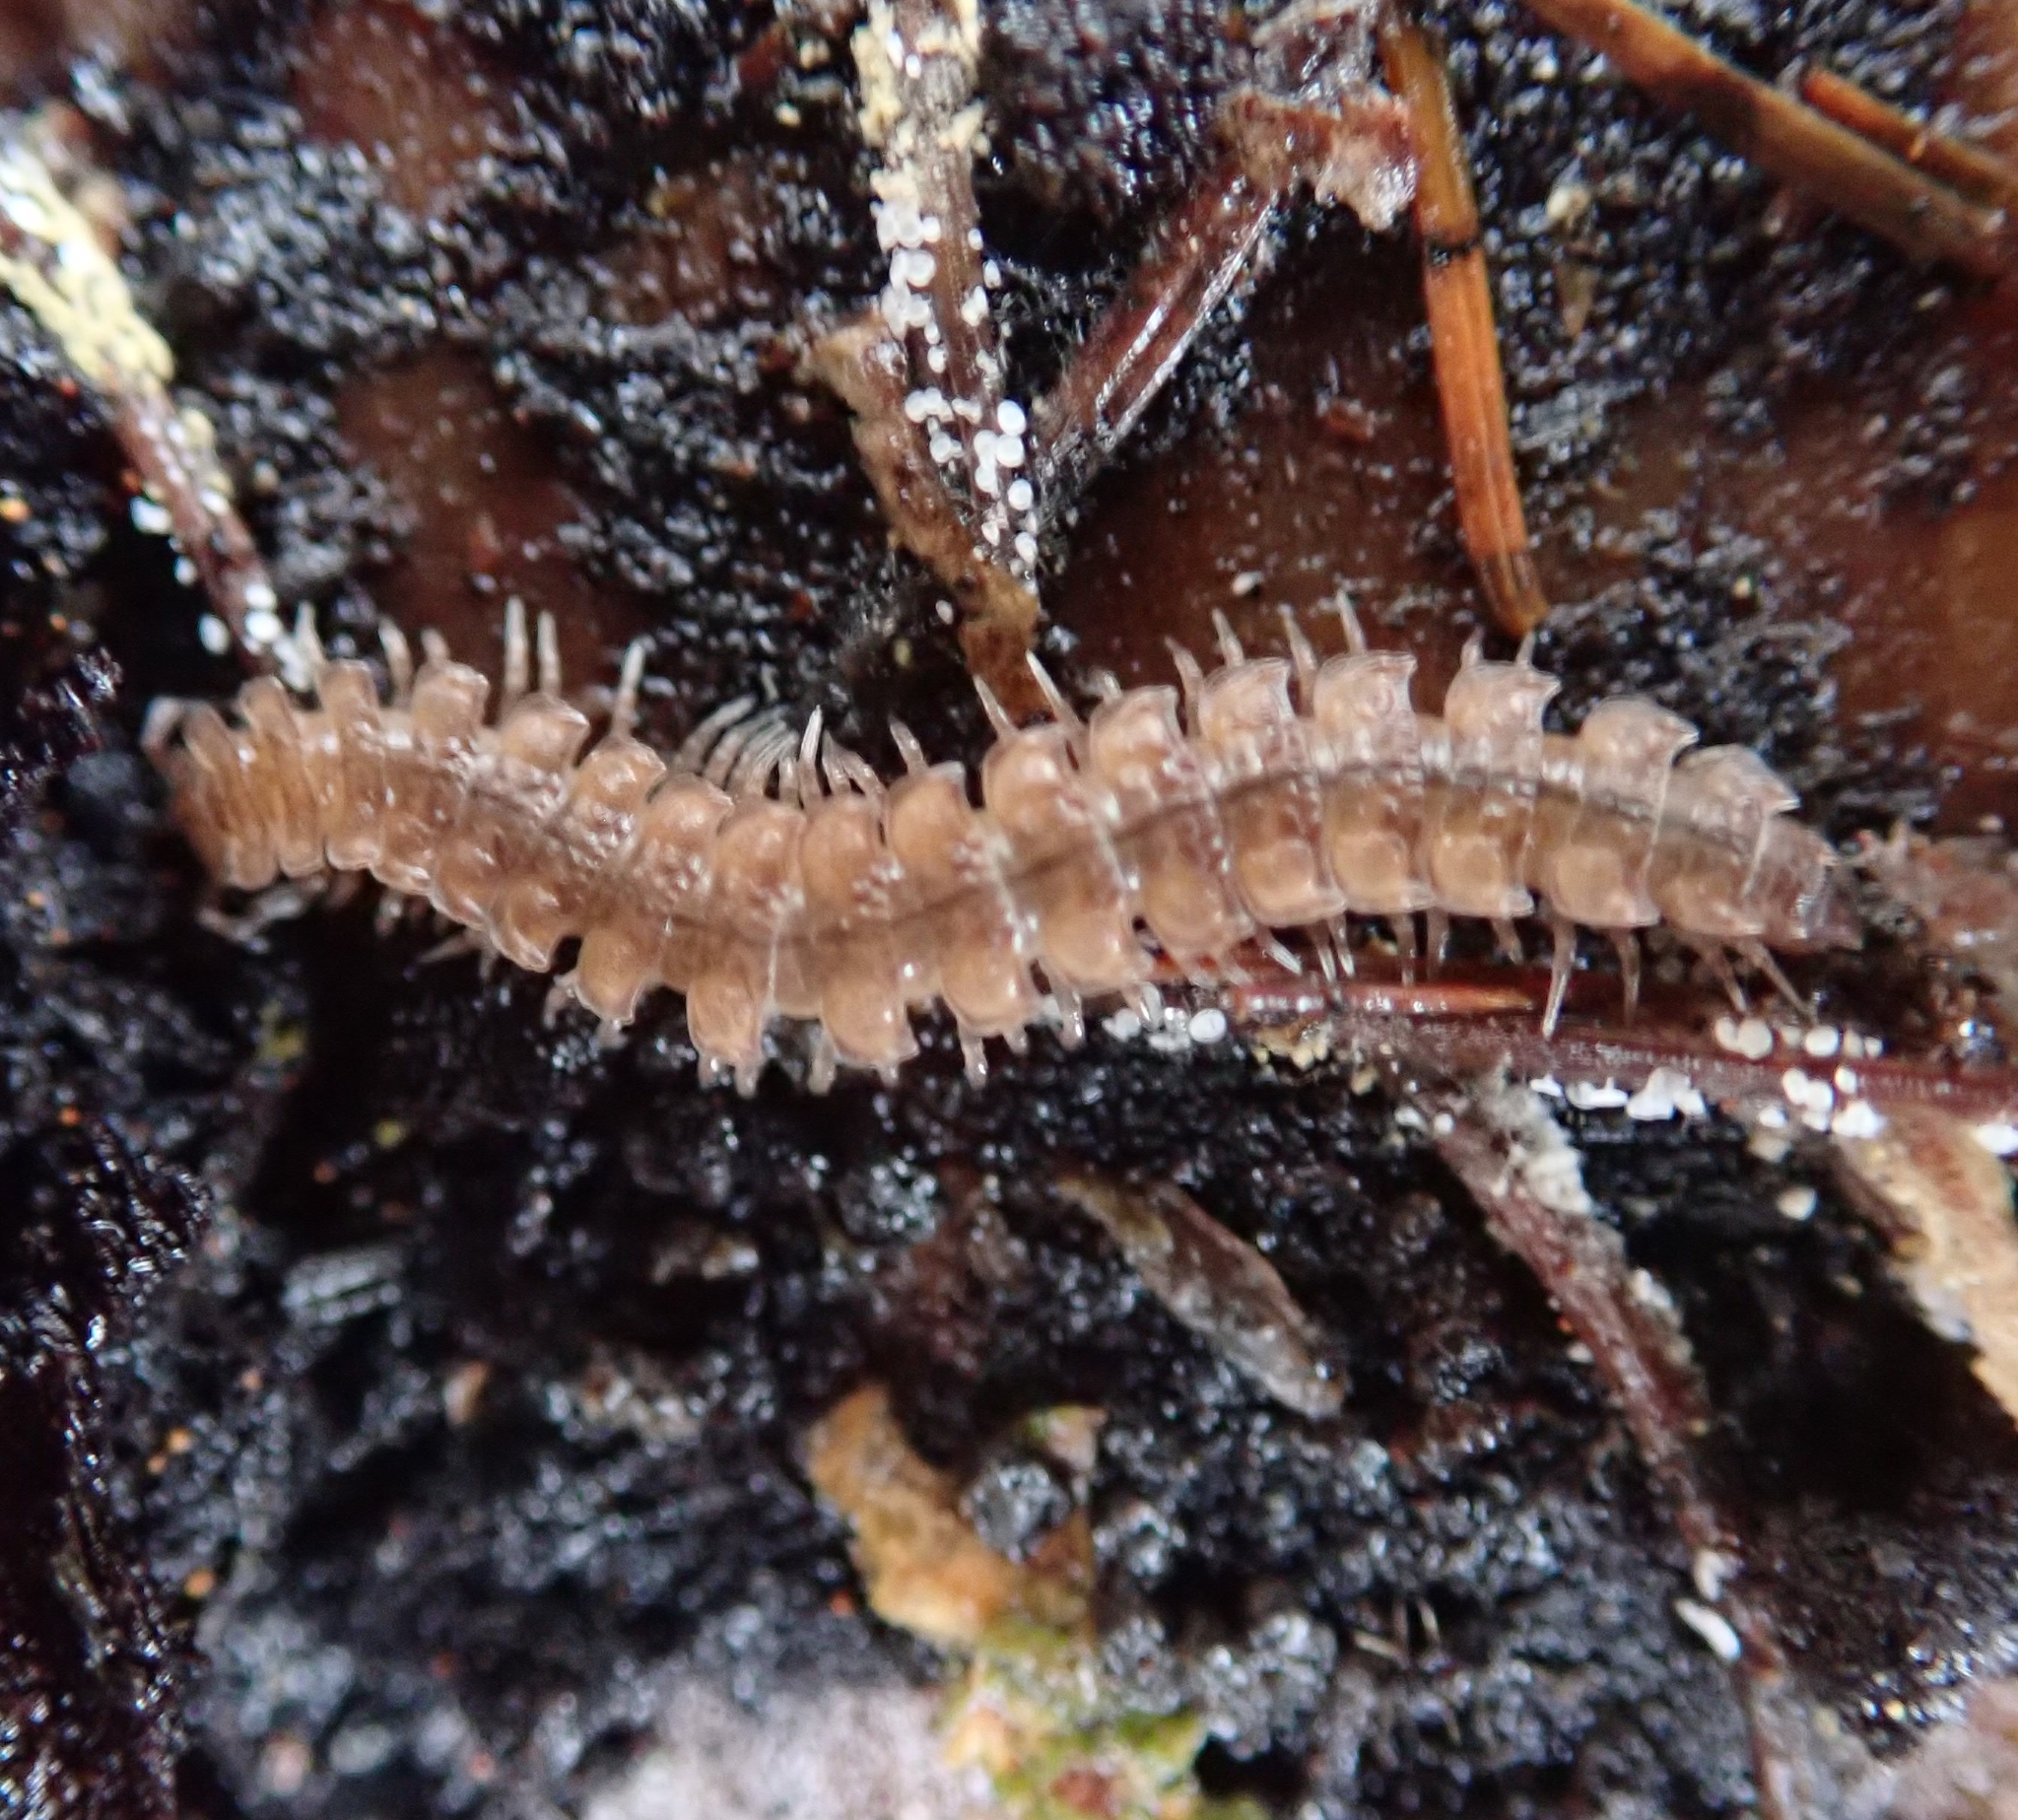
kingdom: Animalia
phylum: Arthropoda
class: Diplopoda
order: Polydesmida
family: Polydesmidae
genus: Polydesmus
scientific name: Polydesmus angustus
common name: Flat millipede
